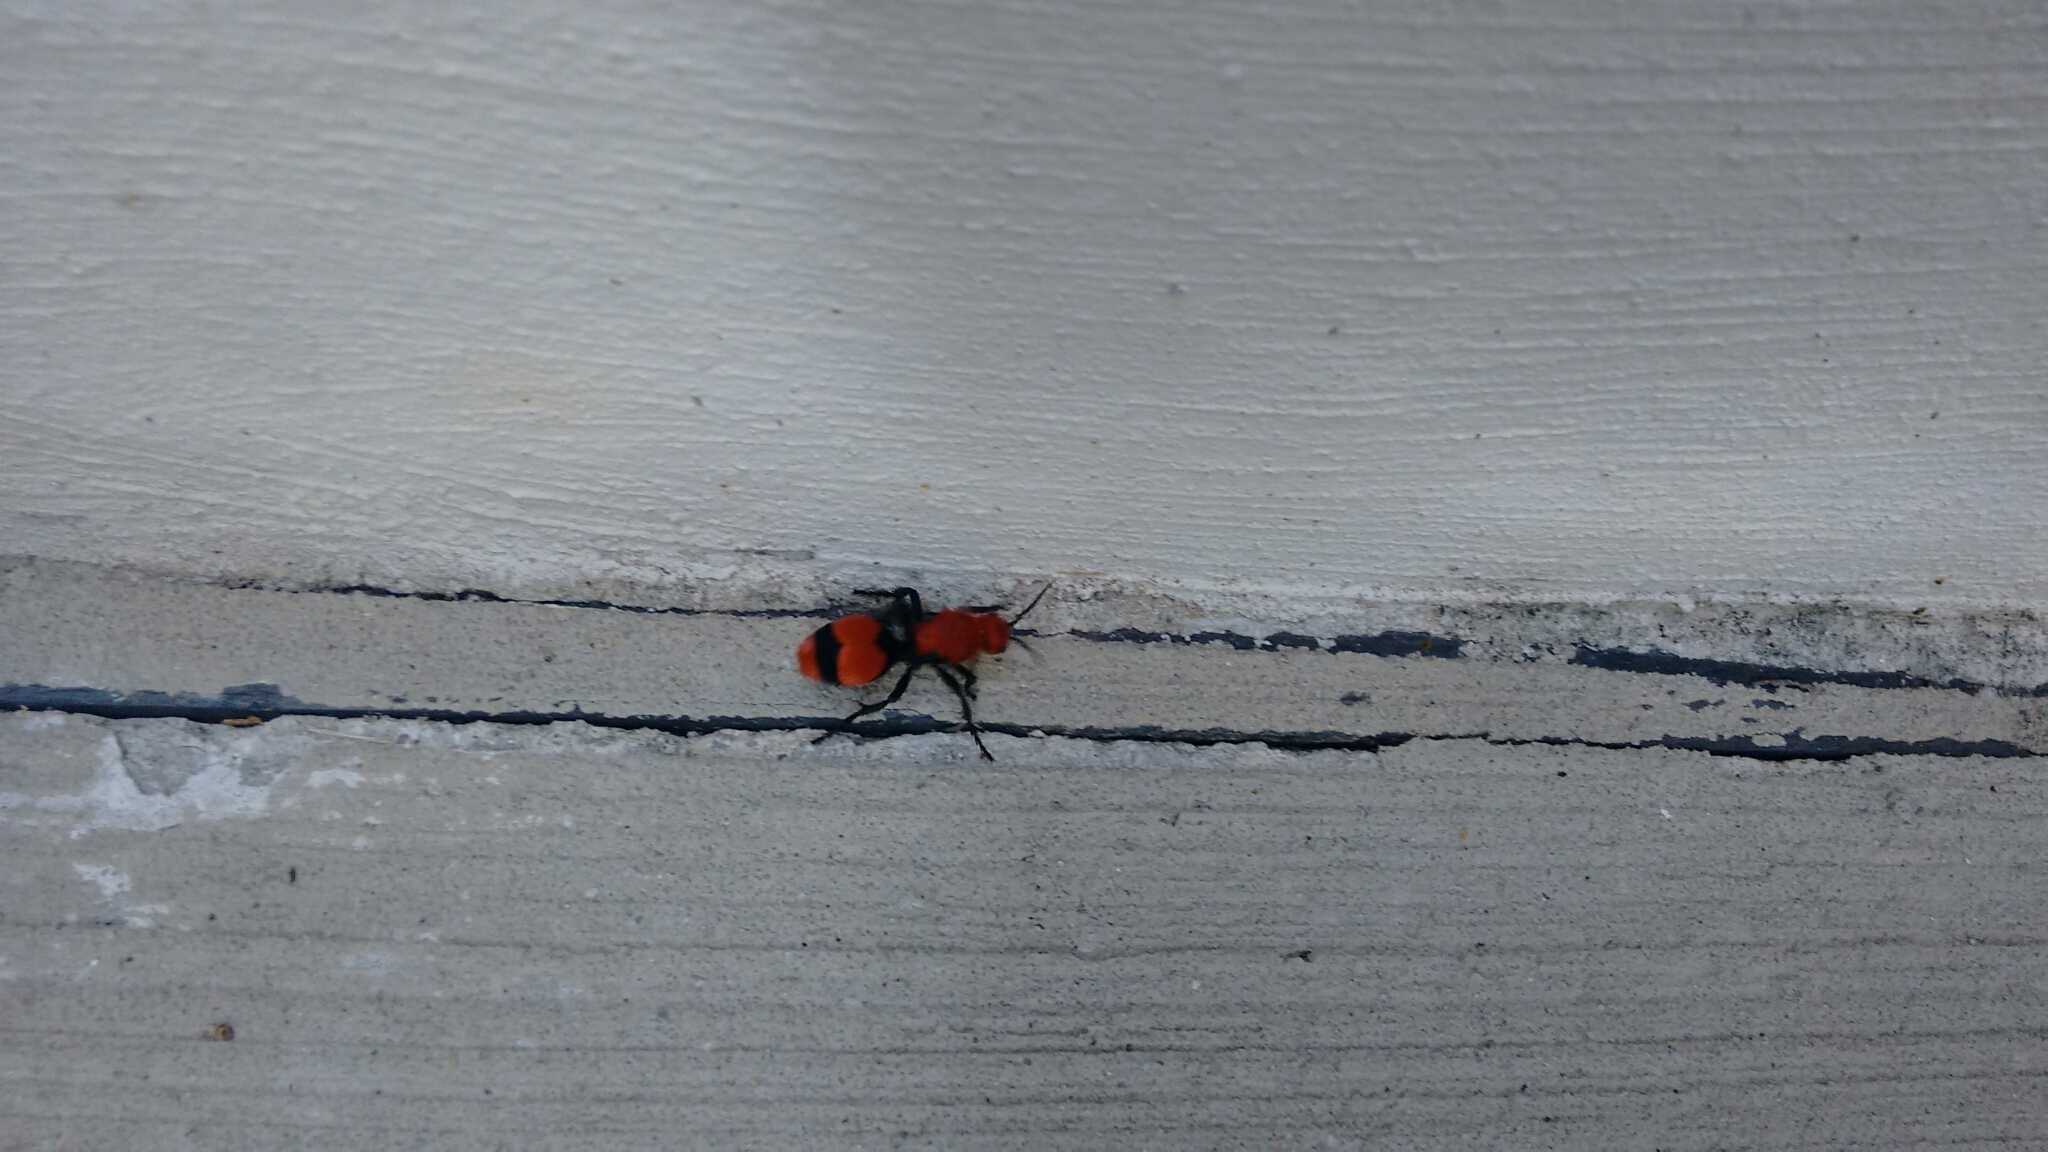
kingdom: Animalia
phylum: Arthropoda
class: Insecta
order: Hymenoptera
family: Mutillidae
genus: Dasymutilla
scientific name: Dasymutilla occidentalis
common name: Common eastern velvet ant
